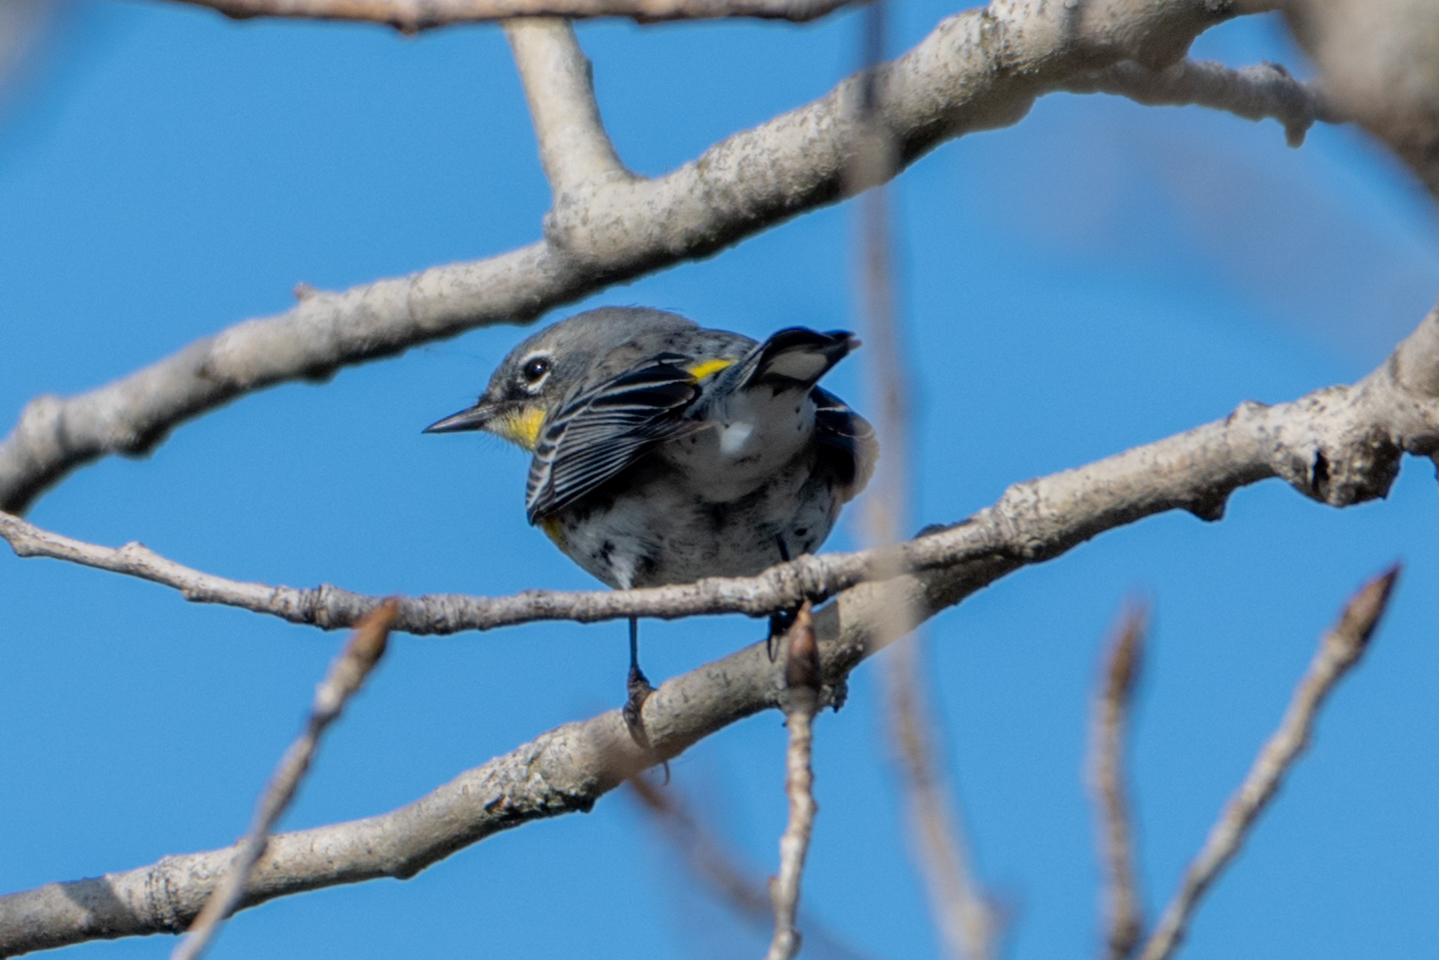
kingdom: Animalia
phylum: Chordata
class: Aves
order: Passeriformes
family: Parulidae
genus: Setophaga
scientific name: Setophaga coronata
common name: Myrtle warbler
